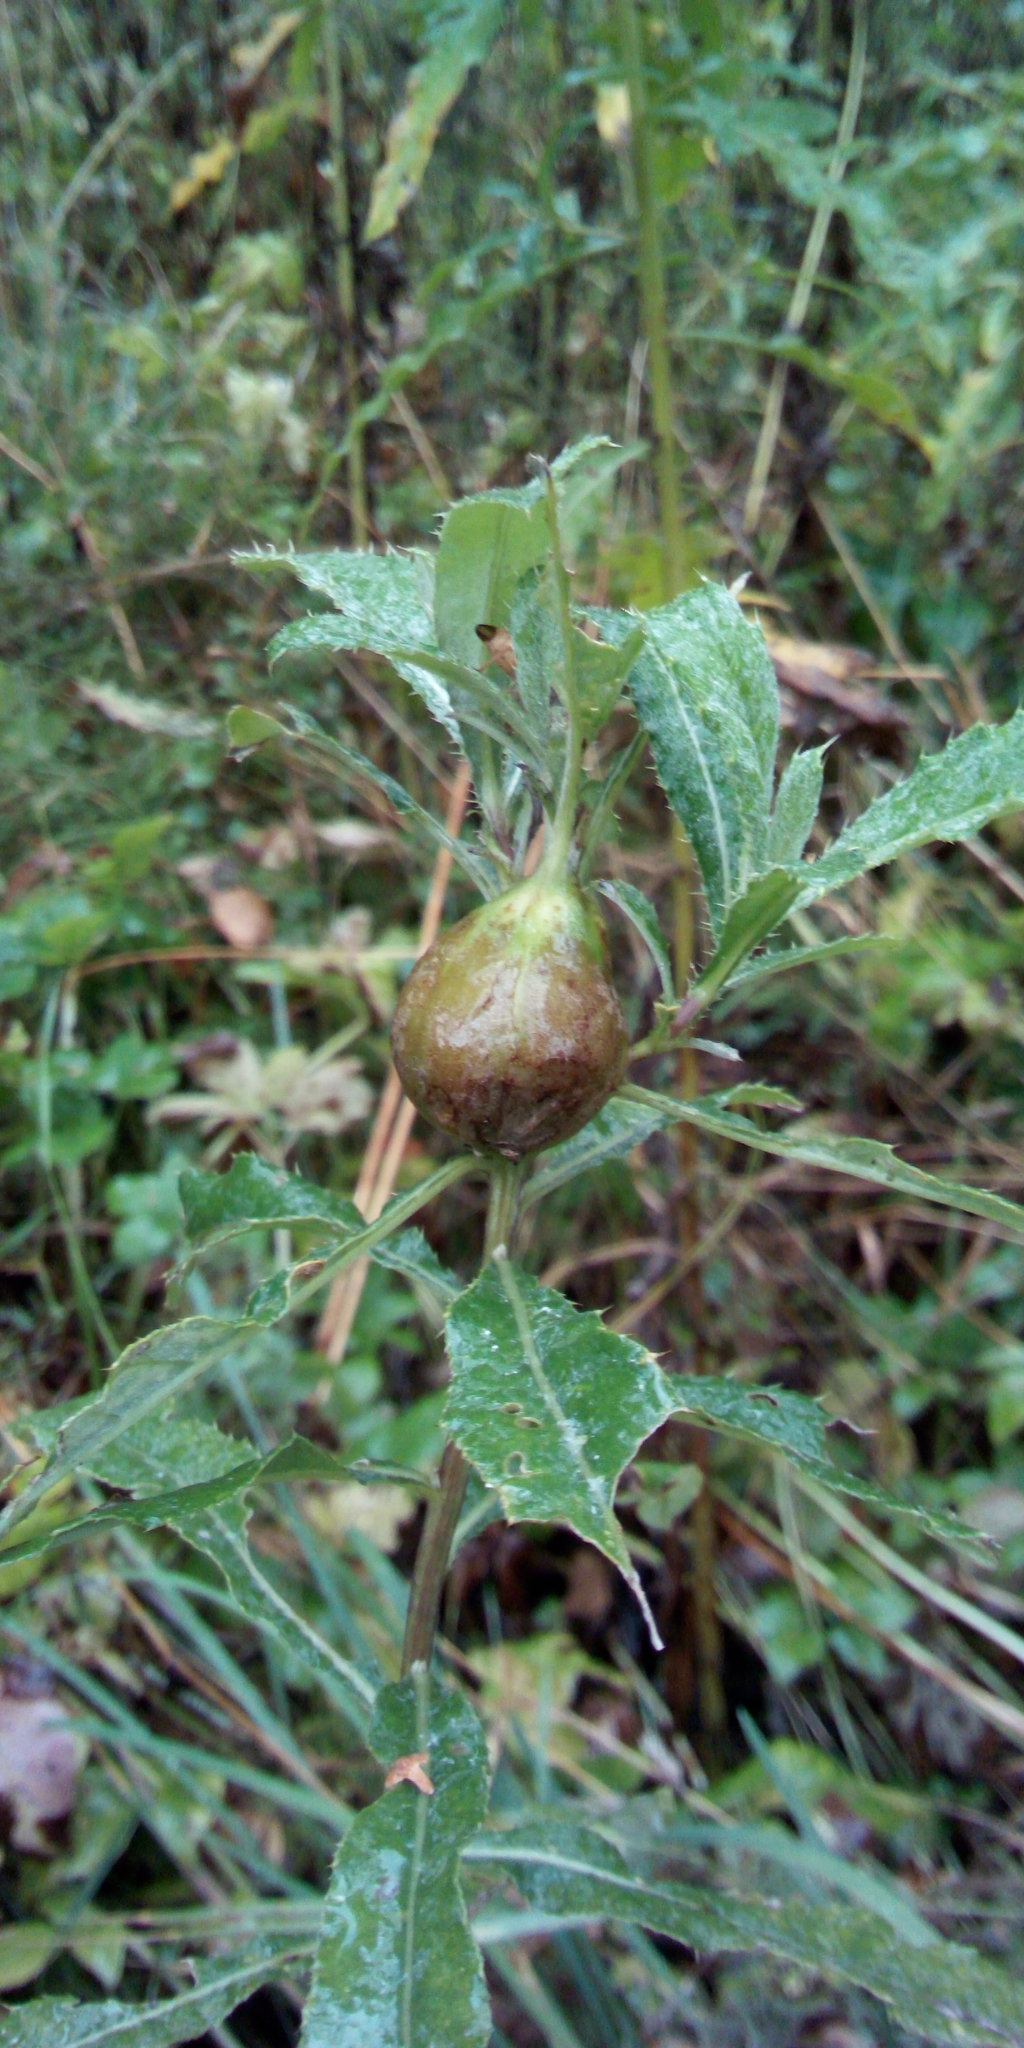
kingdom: Animalia
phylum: Arthropoda
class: Insecta
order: Diptera
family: Tephritidae
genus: Urophora
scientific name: Urophora cardui
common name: Fruit fly
